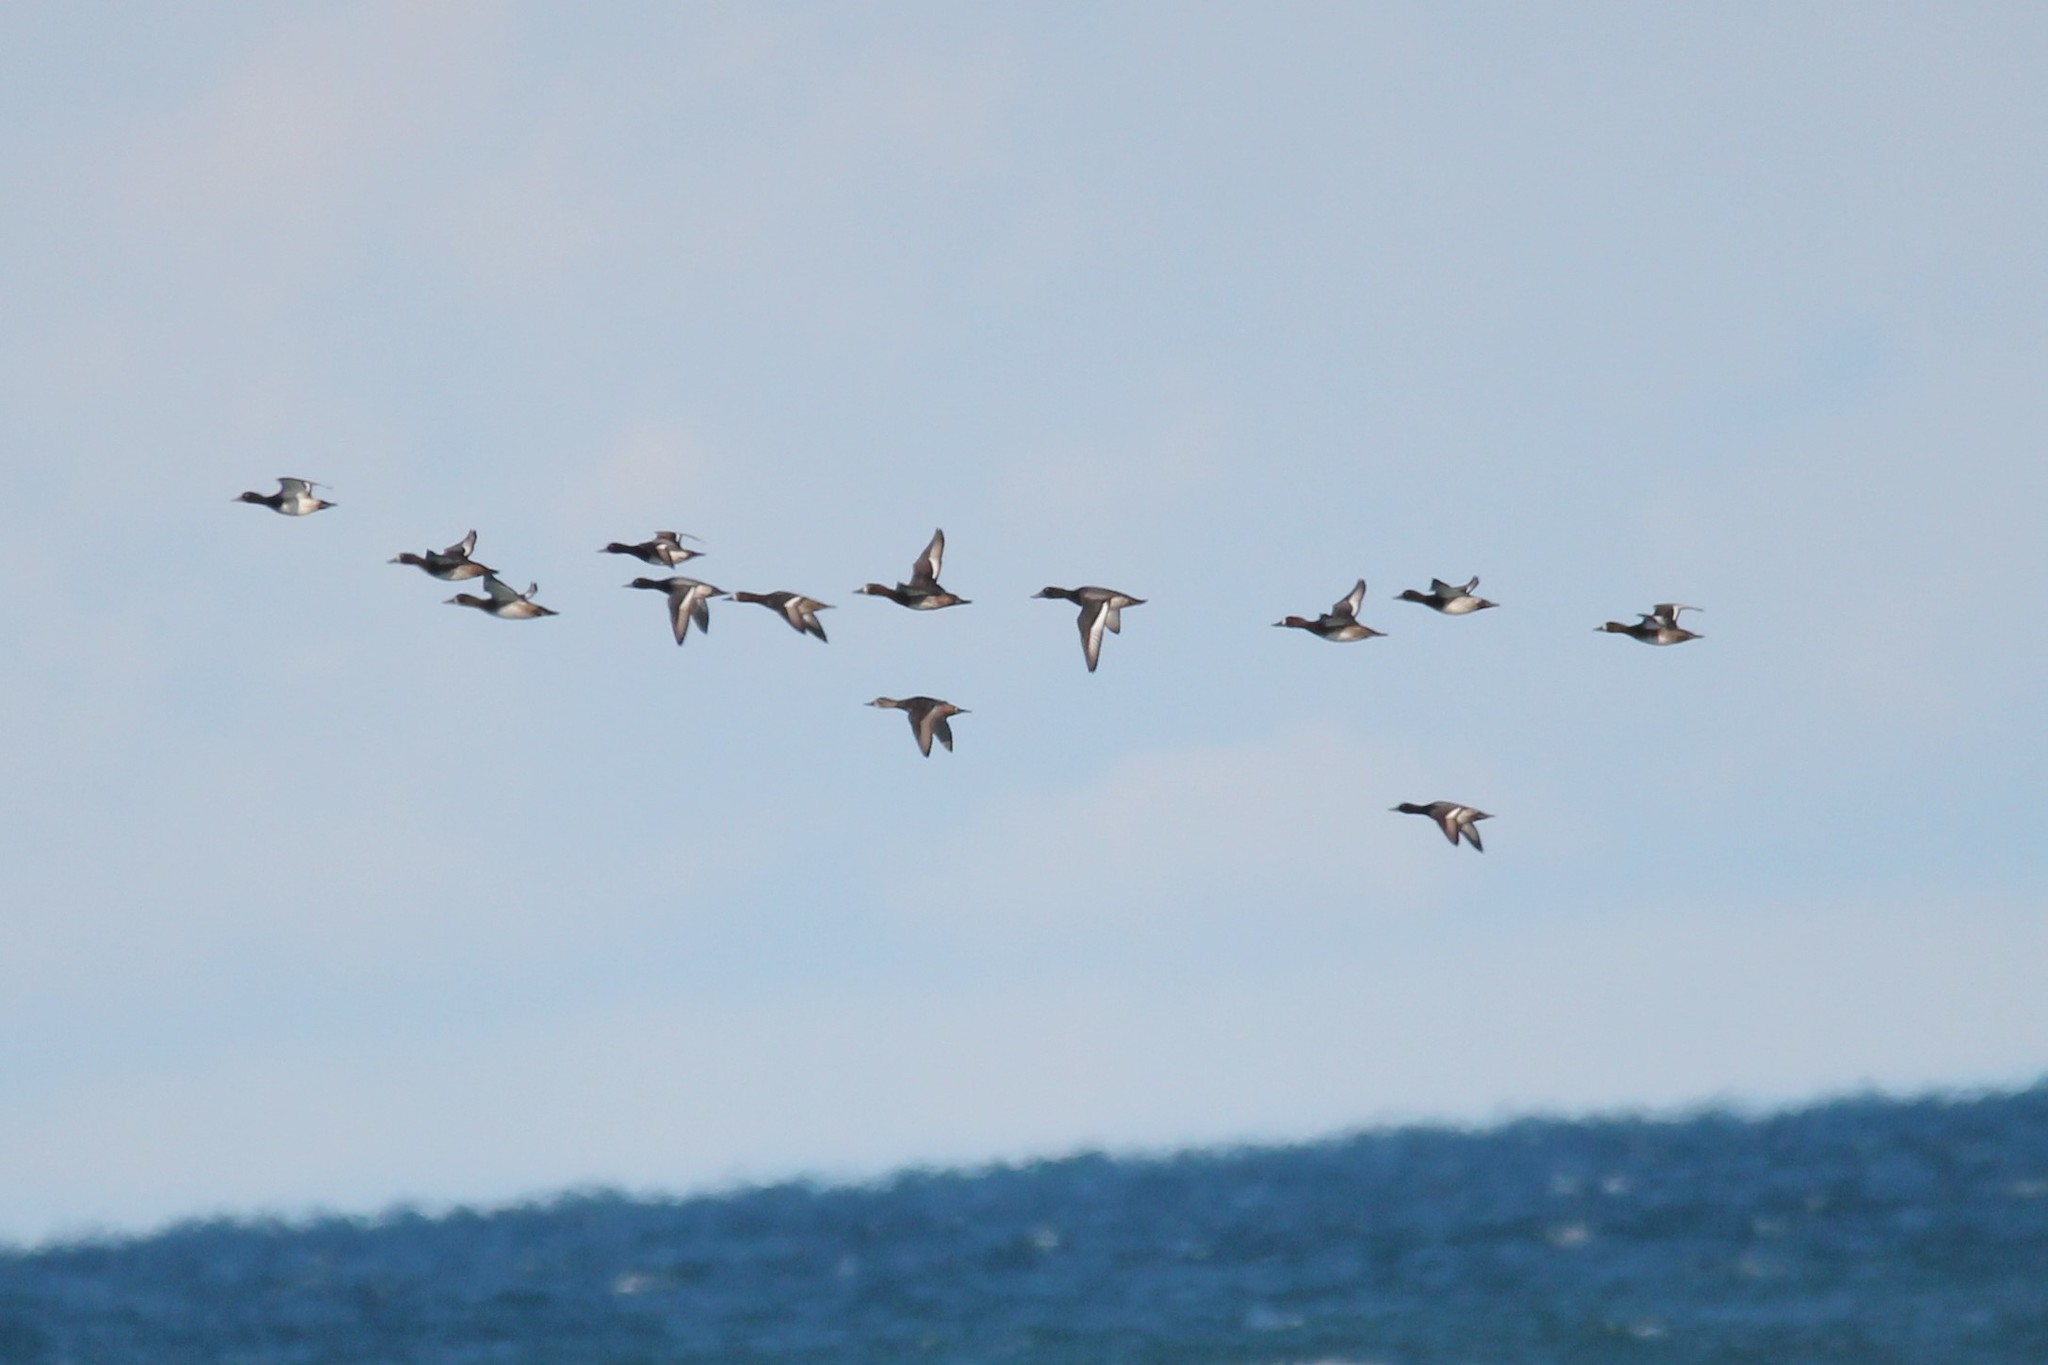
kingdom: Animalia
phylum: Chordata
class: Aves
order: Anseriformes
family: Anatidae
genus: Aythya
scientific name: Aythya marila
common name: Greater scaup
